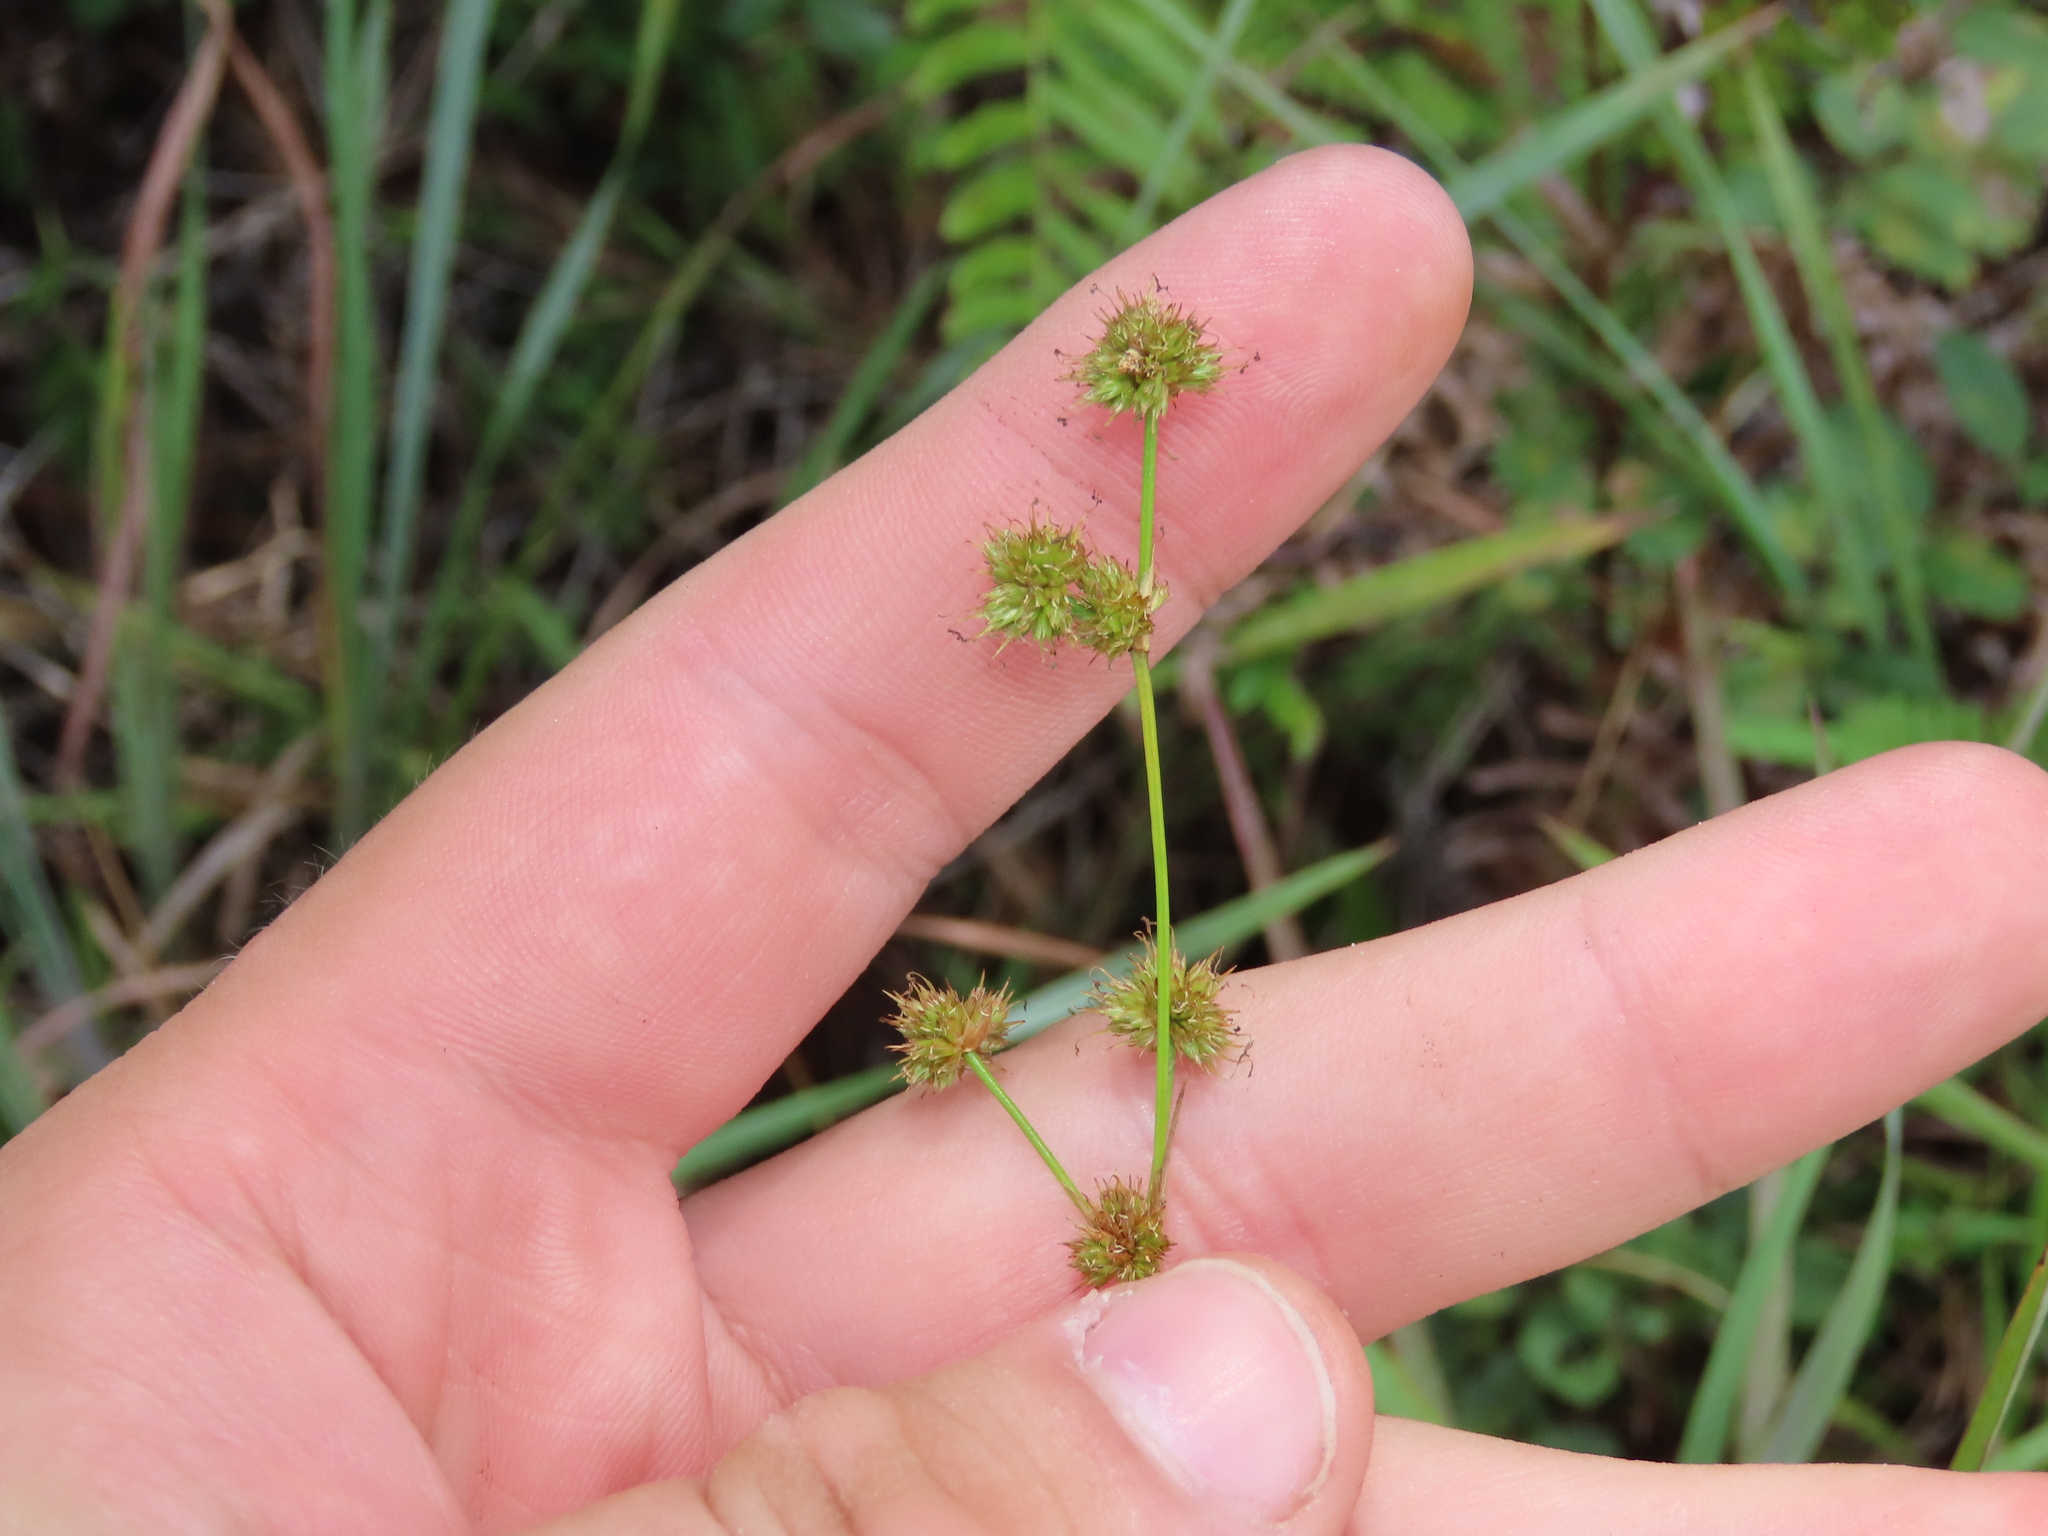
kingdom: Plantae
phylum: Tracheophyta
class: Liliopsida
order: Poales
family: Juncaceae
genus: Juncus
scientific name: Juncus scirpoides
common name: Needlepod rush
